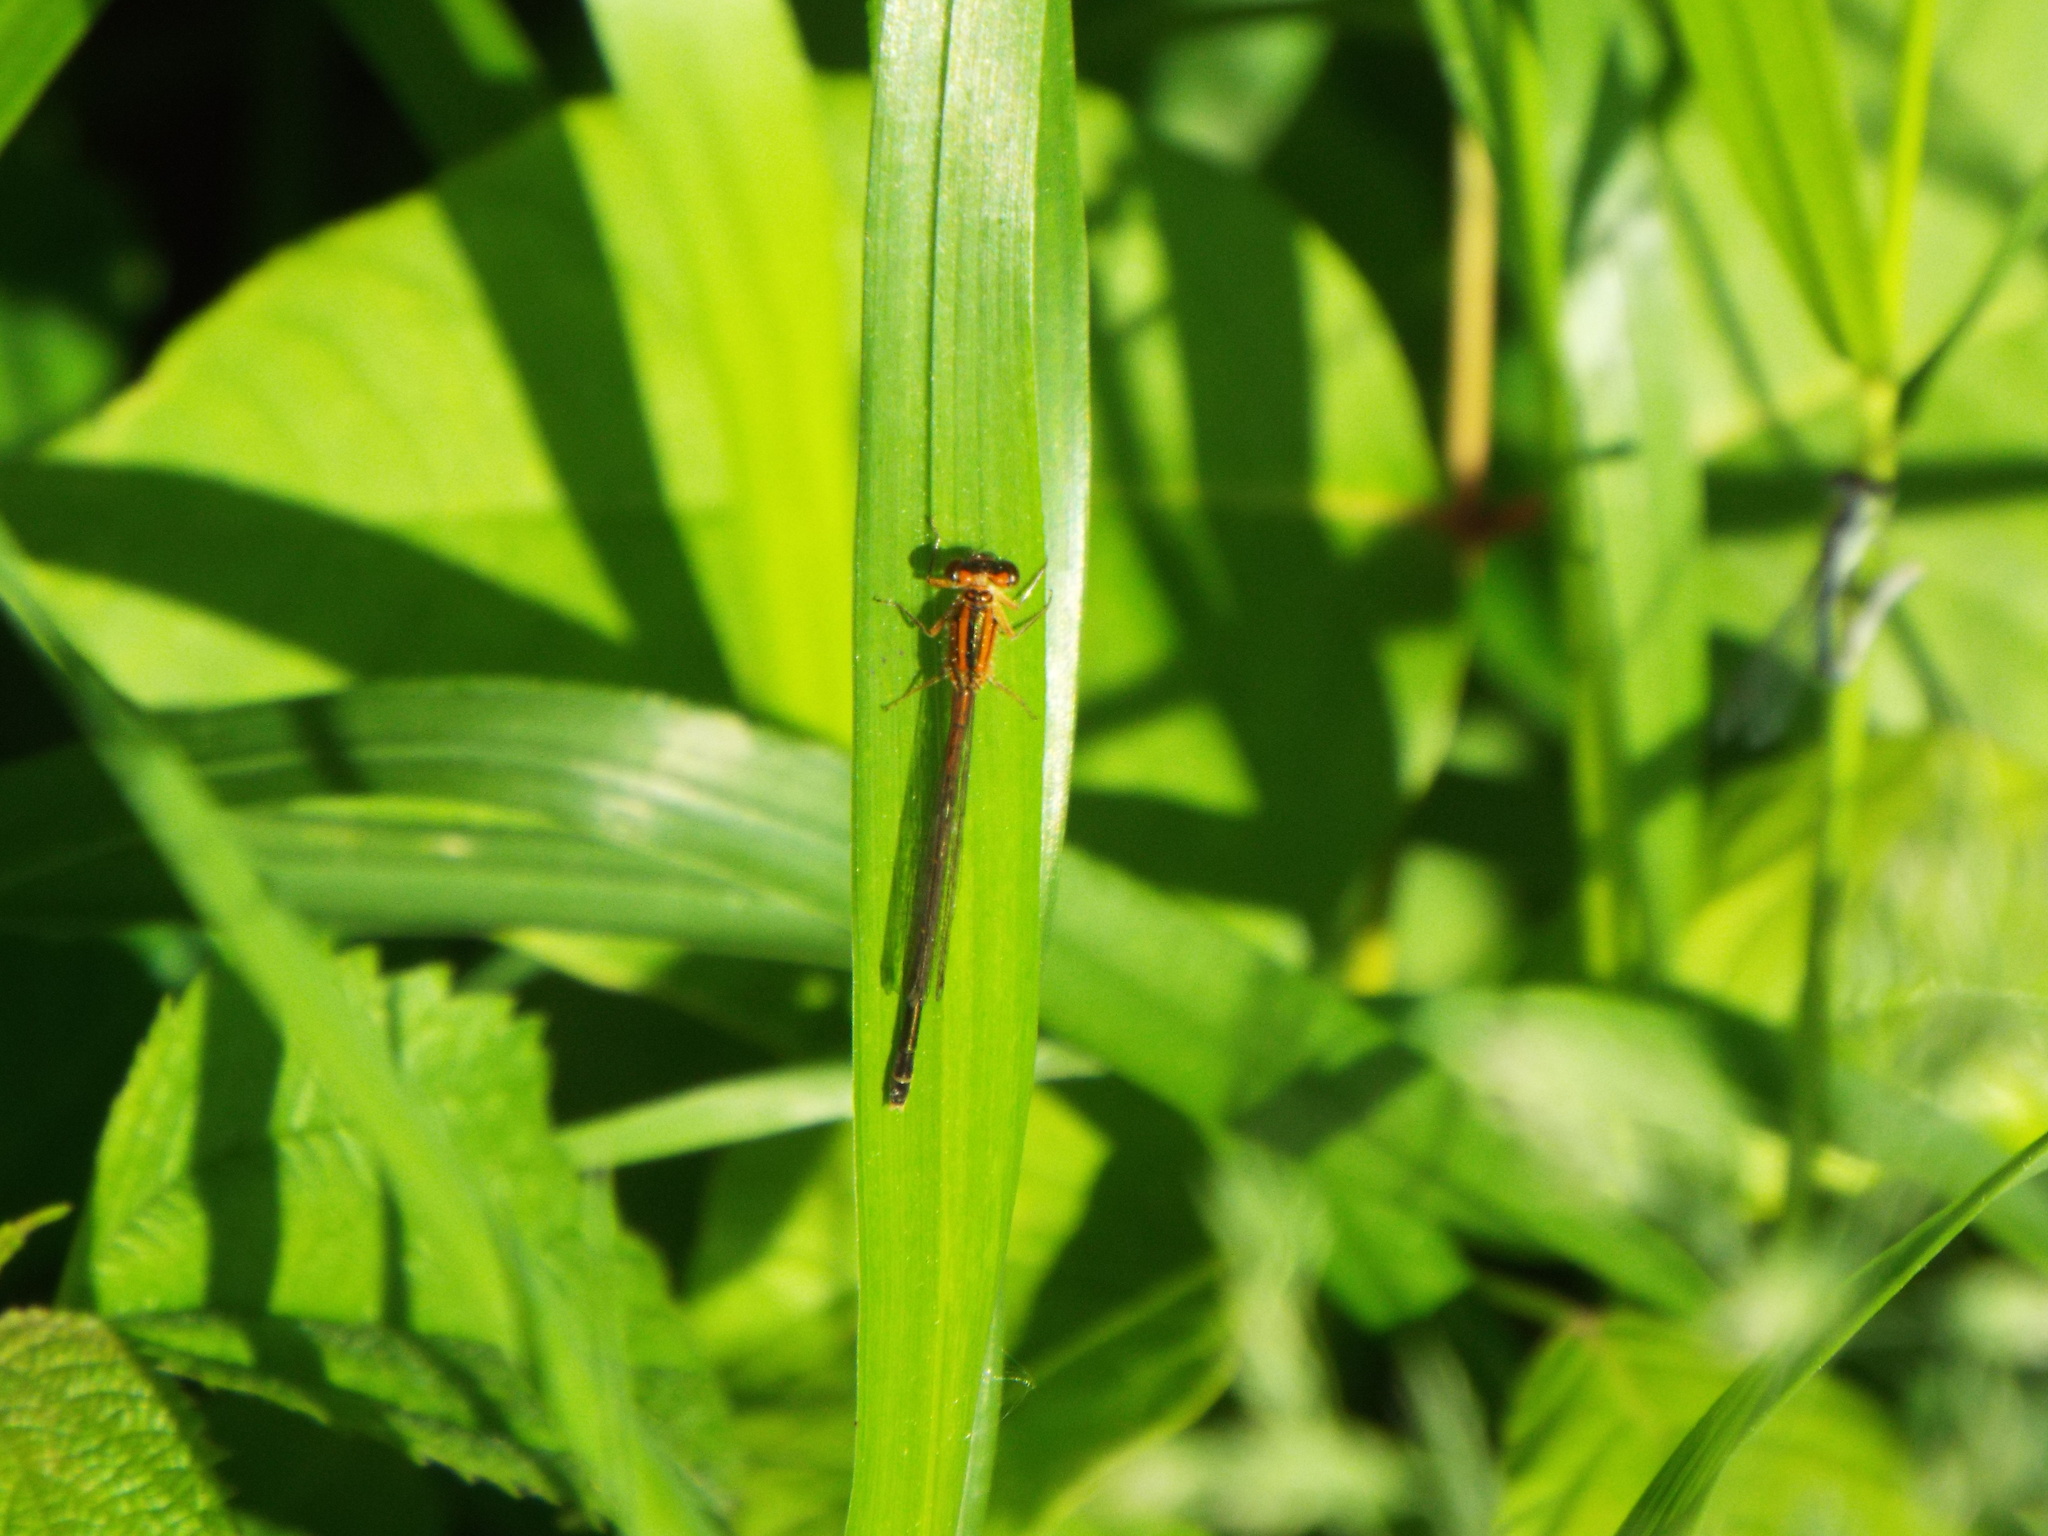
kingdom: Animalia
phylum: Arthropoda
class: Insecta
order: Odonata
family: Coenagrionidae
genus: Ischnura
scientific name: Ischnura verticalis
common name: Eastern forktail
